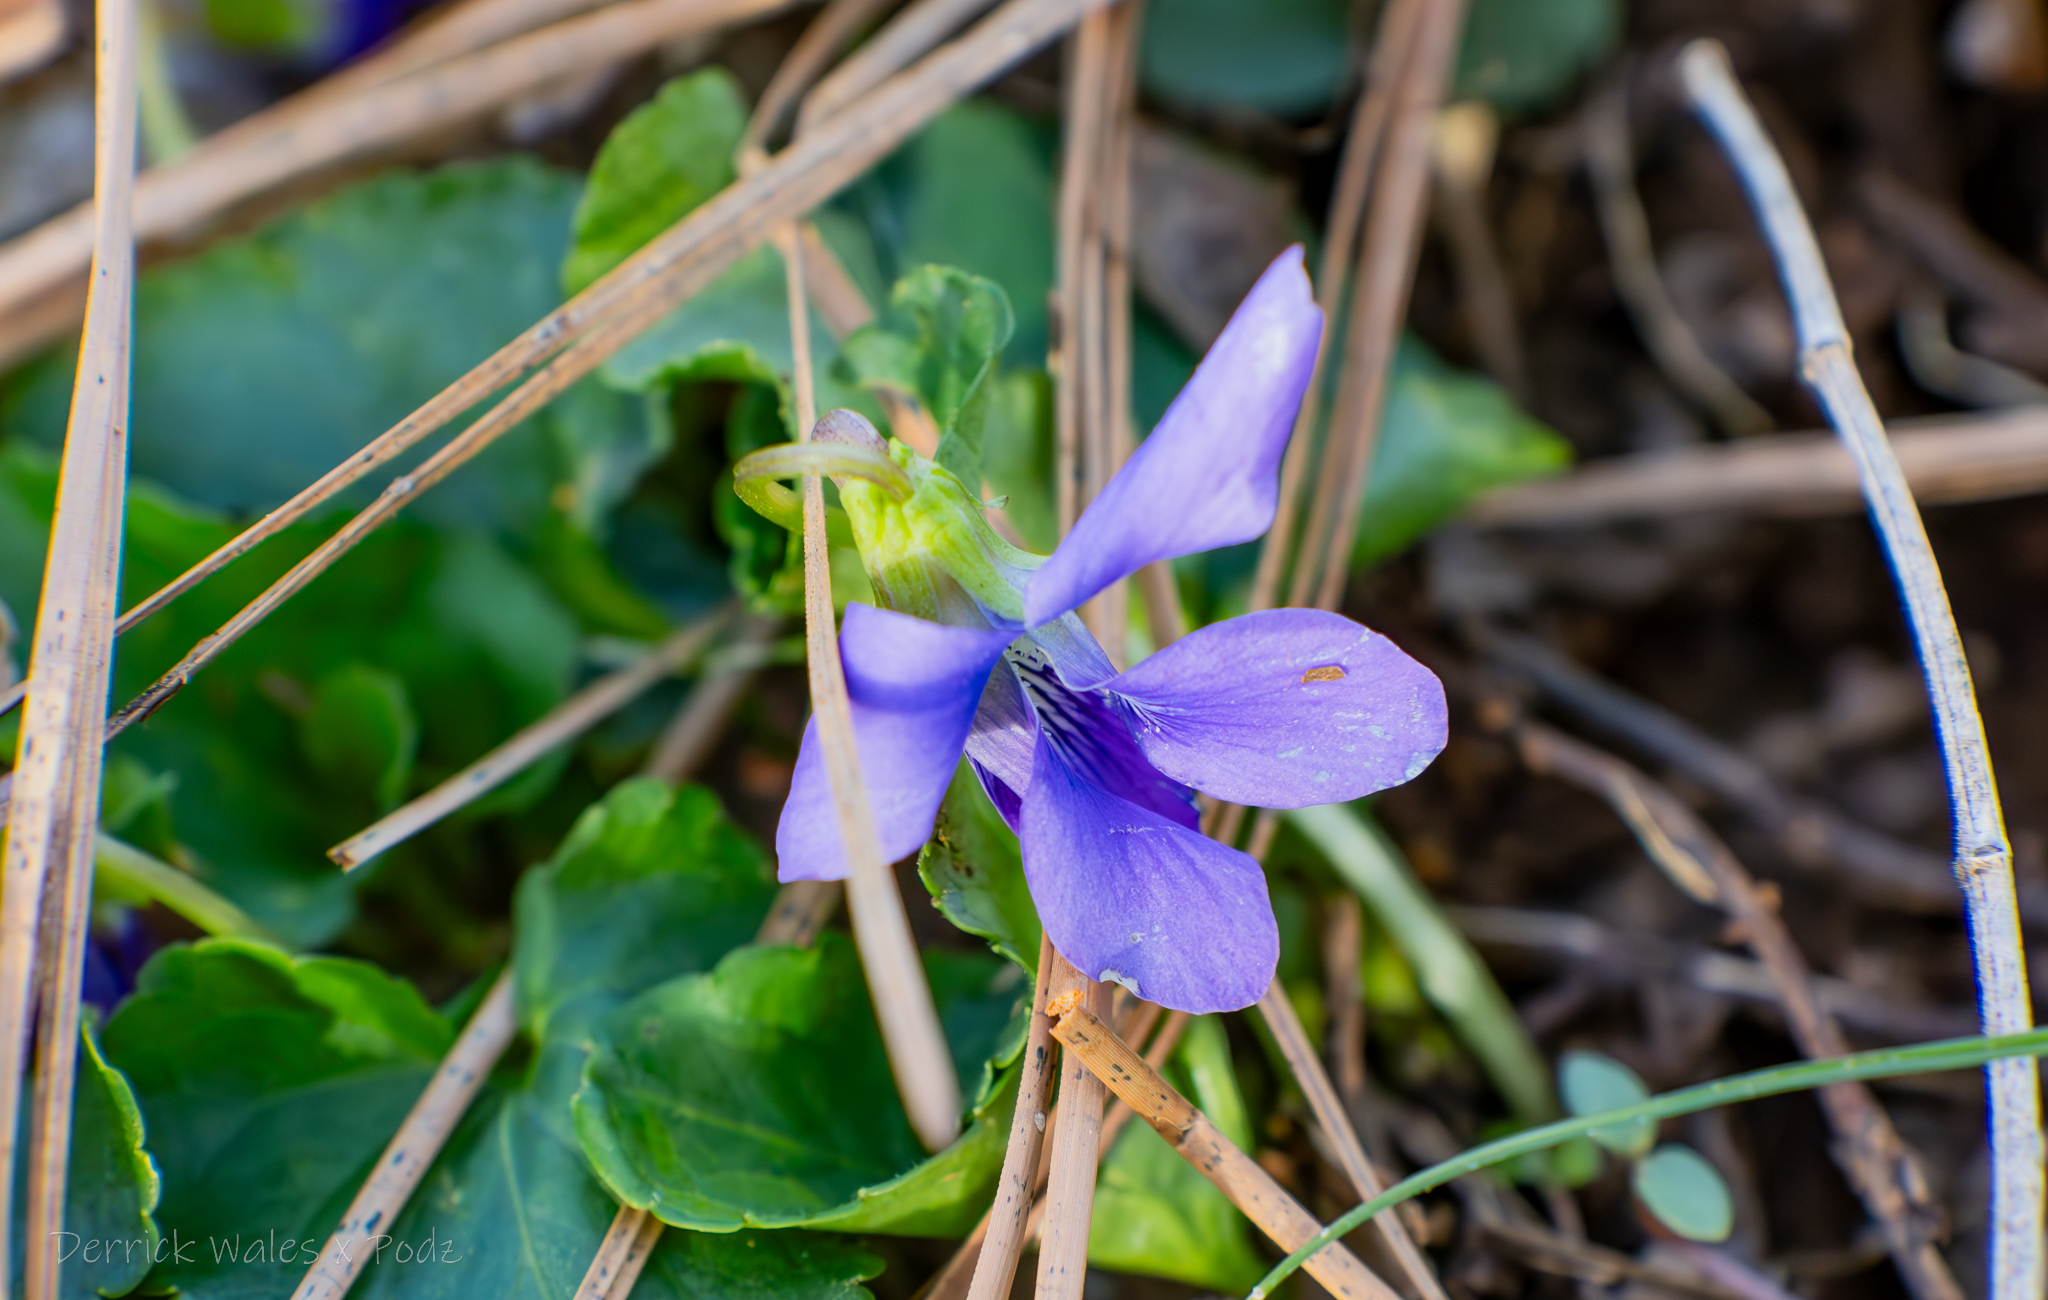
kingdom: Plantae
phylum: Tracheophyta
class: Magnoliopsida
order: Malpighiales
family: Violaceae
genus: Viola
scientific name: Viola sororia
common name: Dooryard violet
